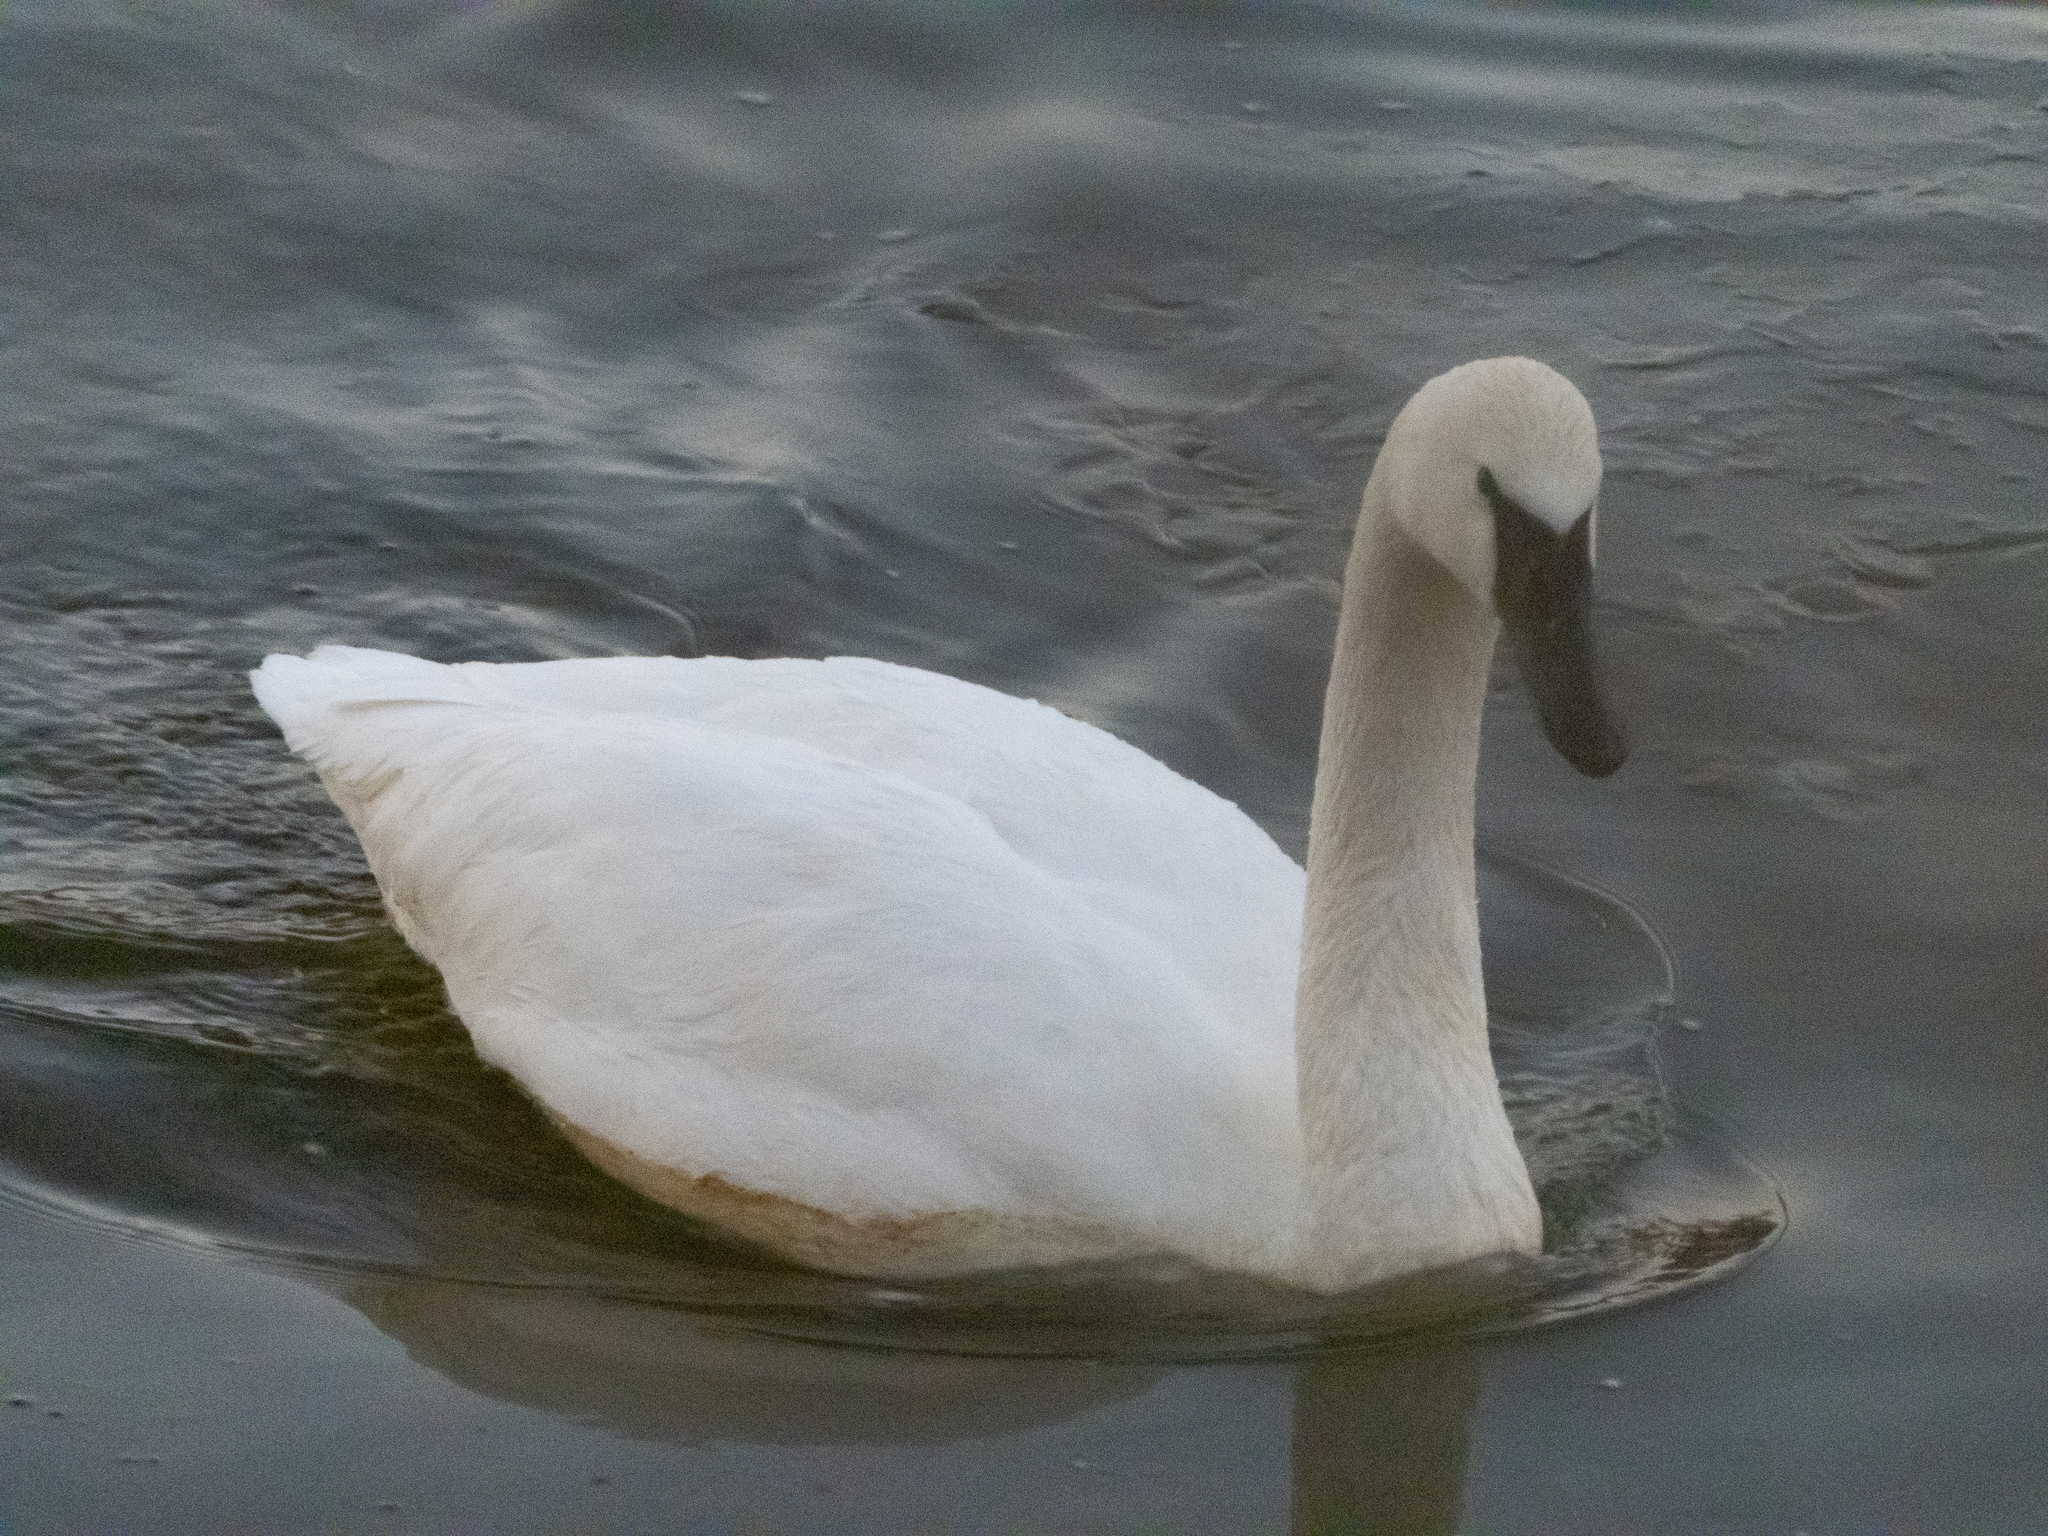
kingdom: Animalia
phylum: Chordata
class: Aves
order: Anseriformes
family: Anatidae
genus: Cygnus
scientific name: Cygnus buccinator
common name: Trumpeter swan
